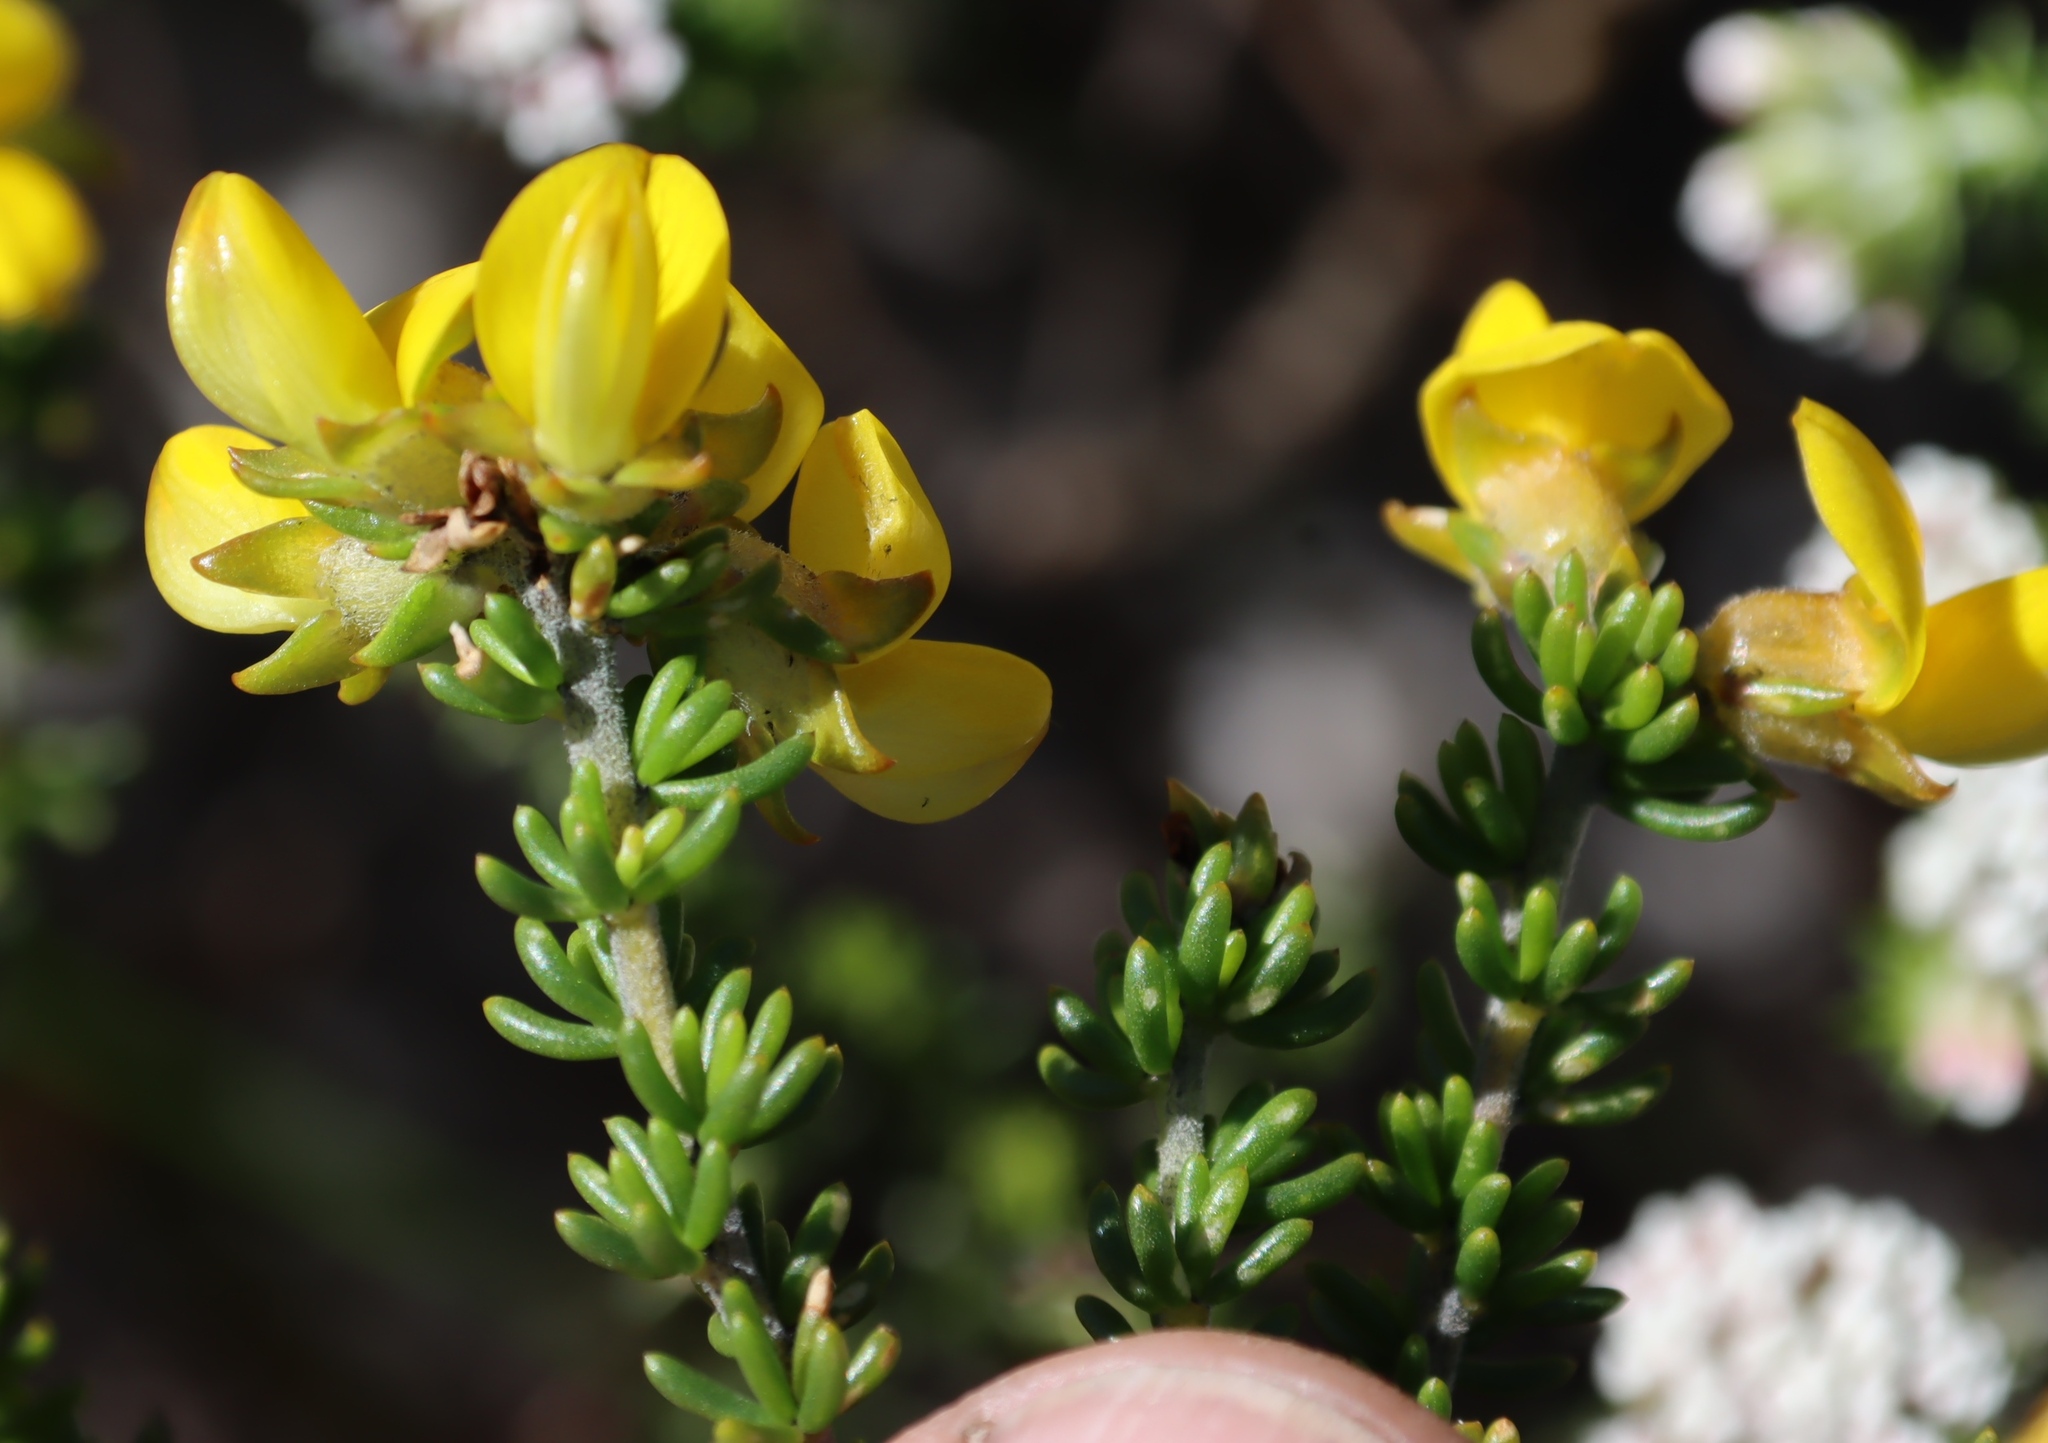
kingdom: Plantae
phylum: Tracheophyta
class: Magnoliopsida
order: Fabales
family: Fabaceae
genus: Aspalathus
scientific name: Aspalathus carnosa
